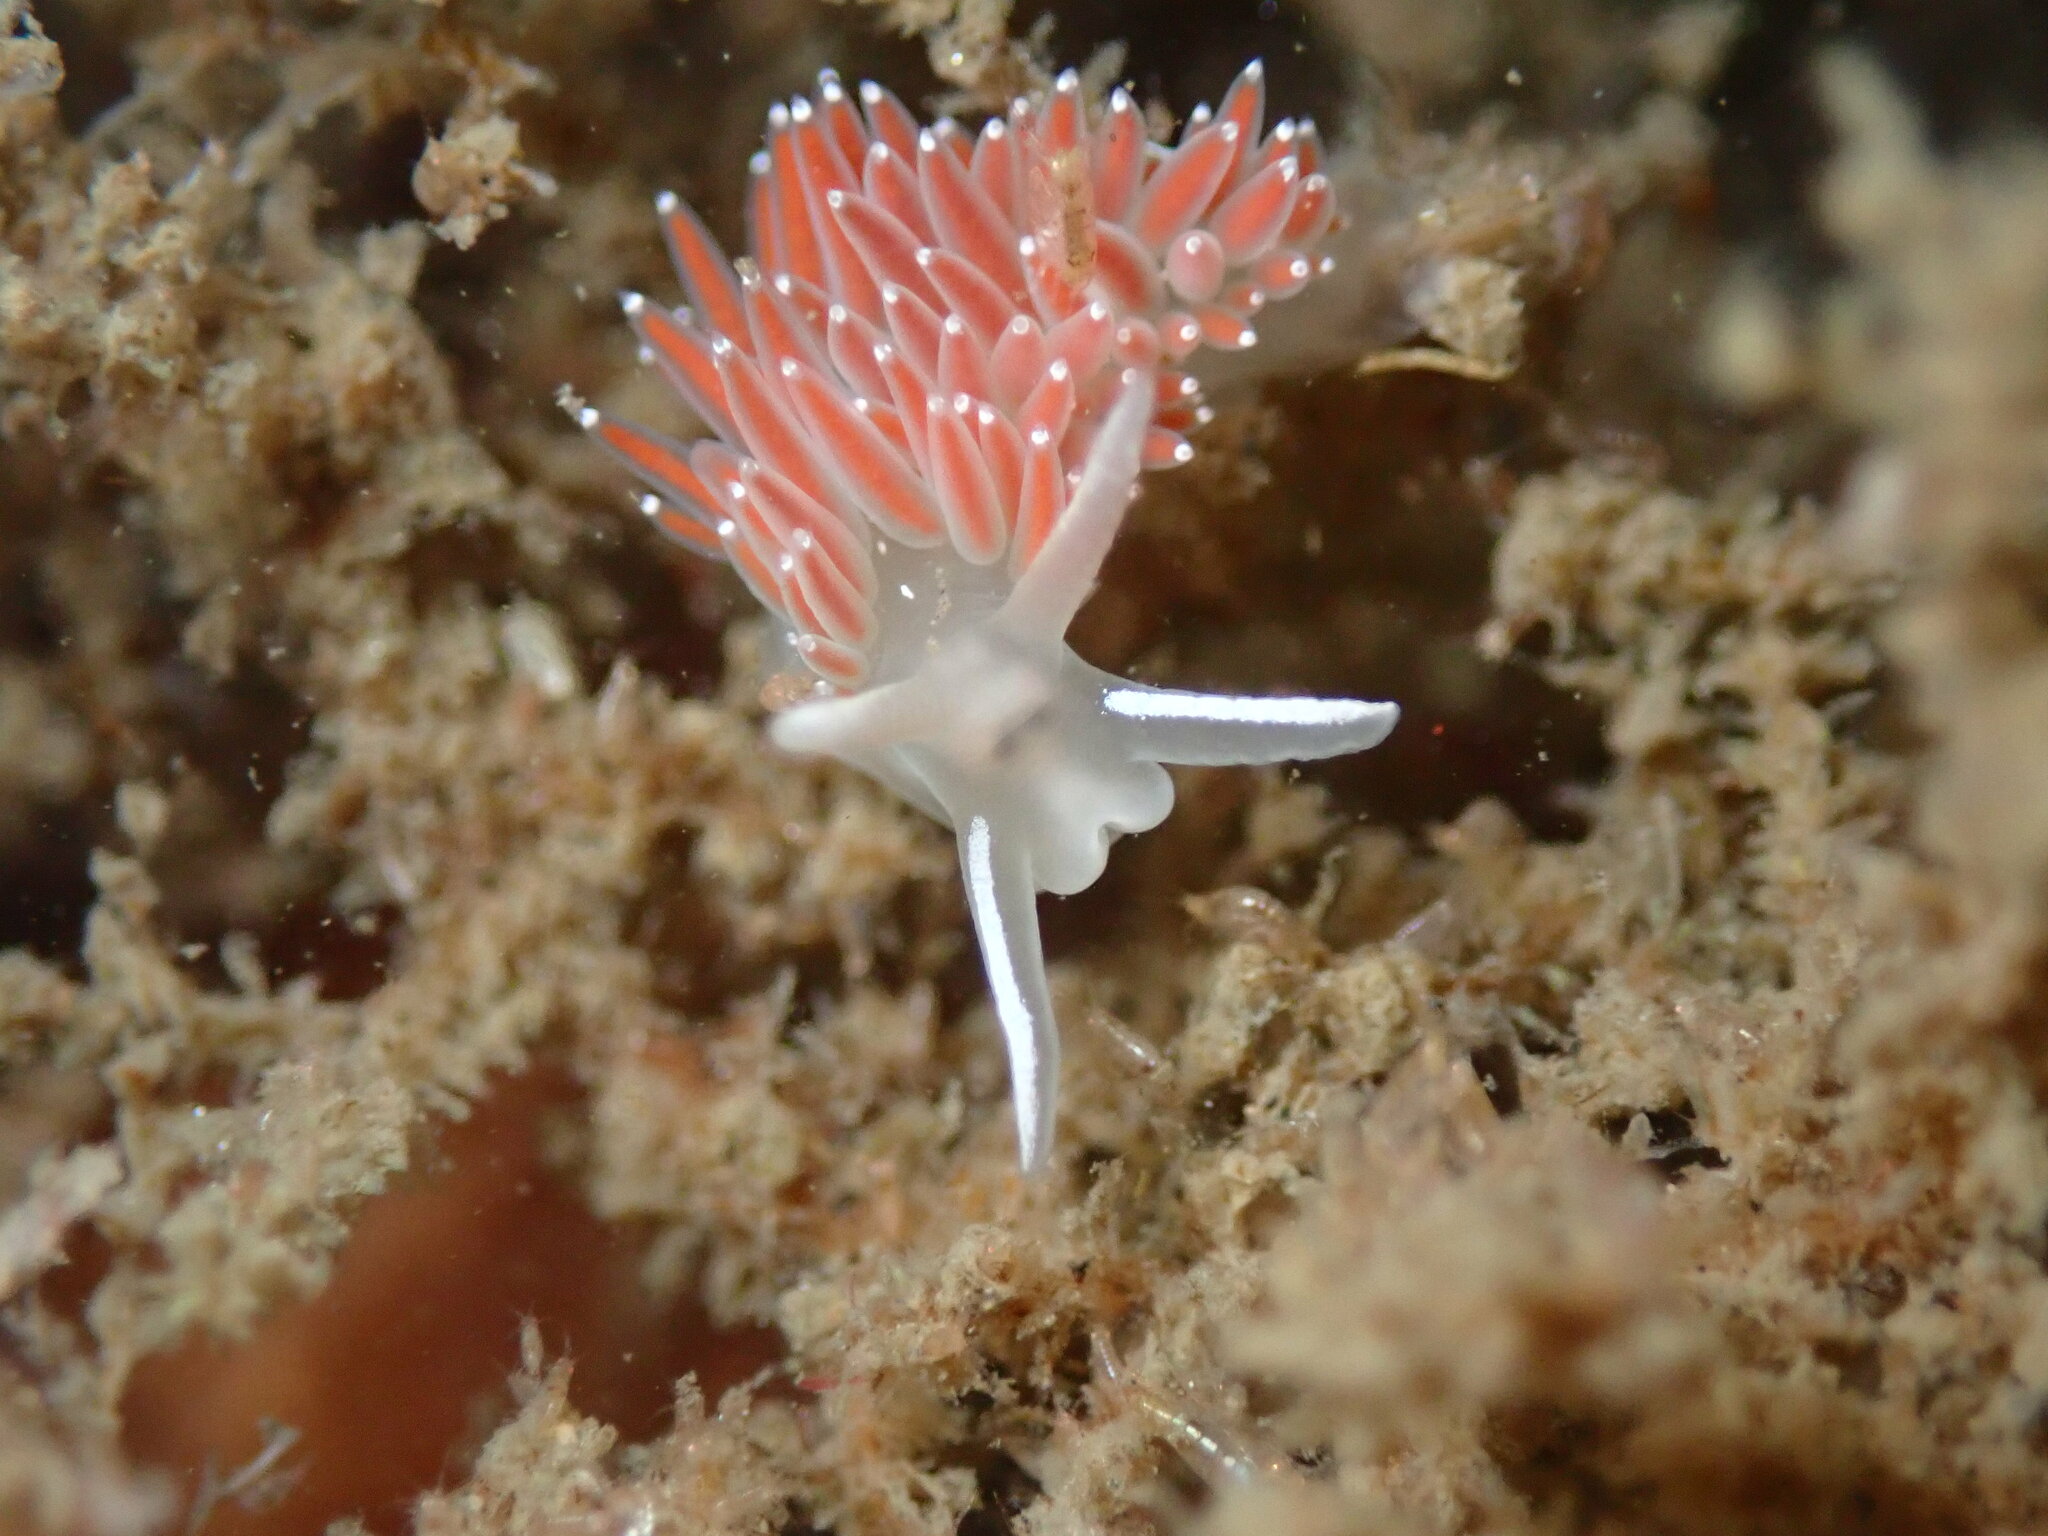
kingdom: Animalia
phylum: Mollusca
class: Gastropoda
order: Nudibranchia
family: Coryphellidae
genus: Coryphella
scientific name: Coryphella verrucosa
